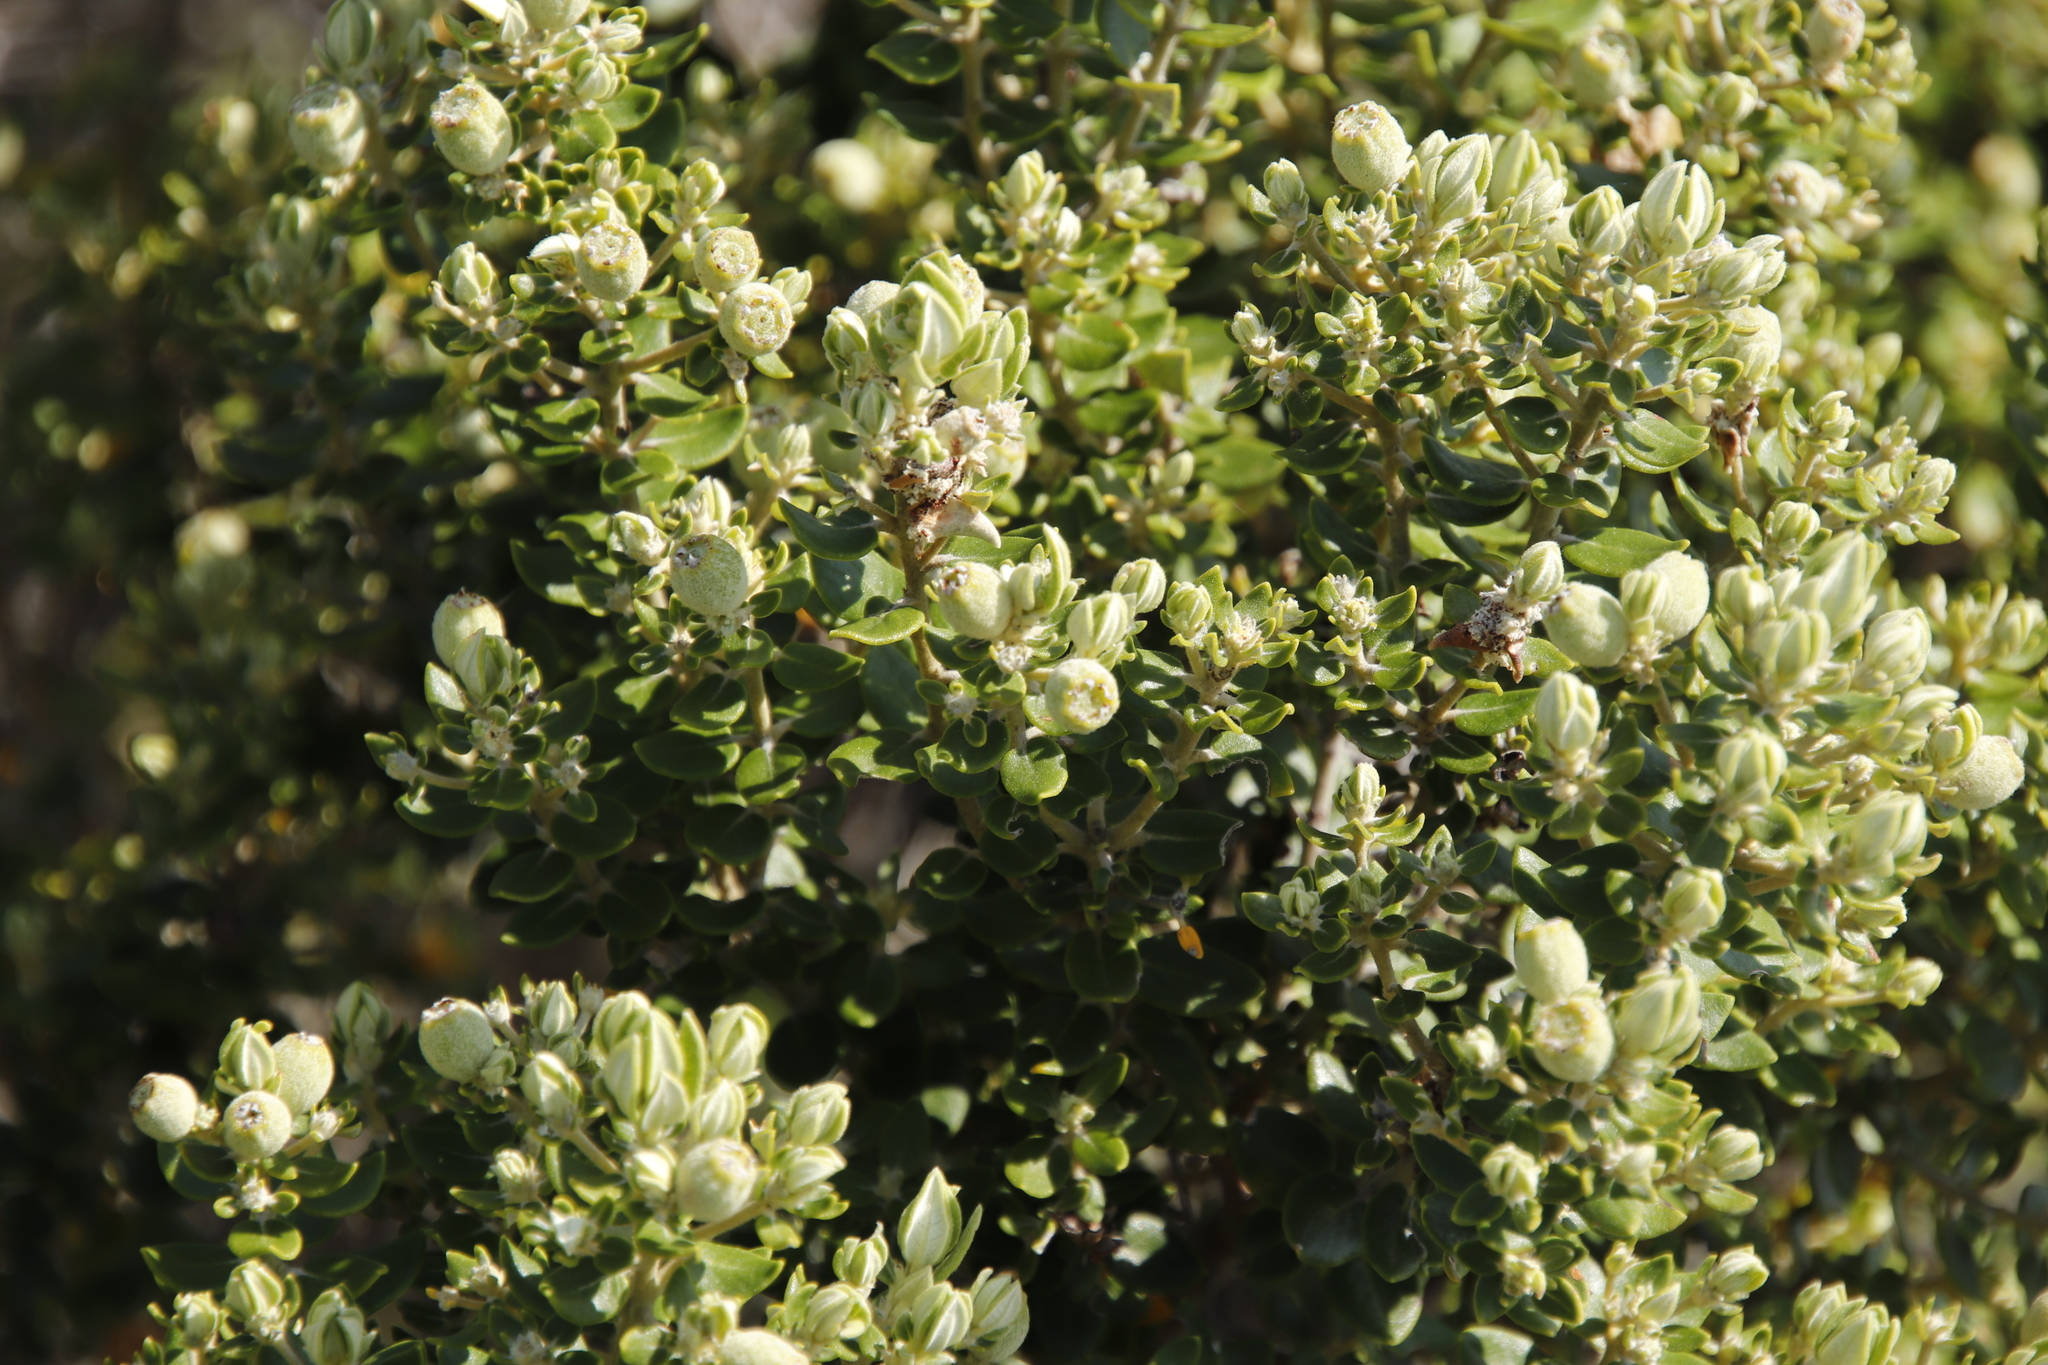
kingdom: Plantae
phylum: Tracheophyta
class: Magnoliopsida
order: Rosales
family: Rhamnaceae
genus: Phylica
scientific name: Phylica buxifolia
